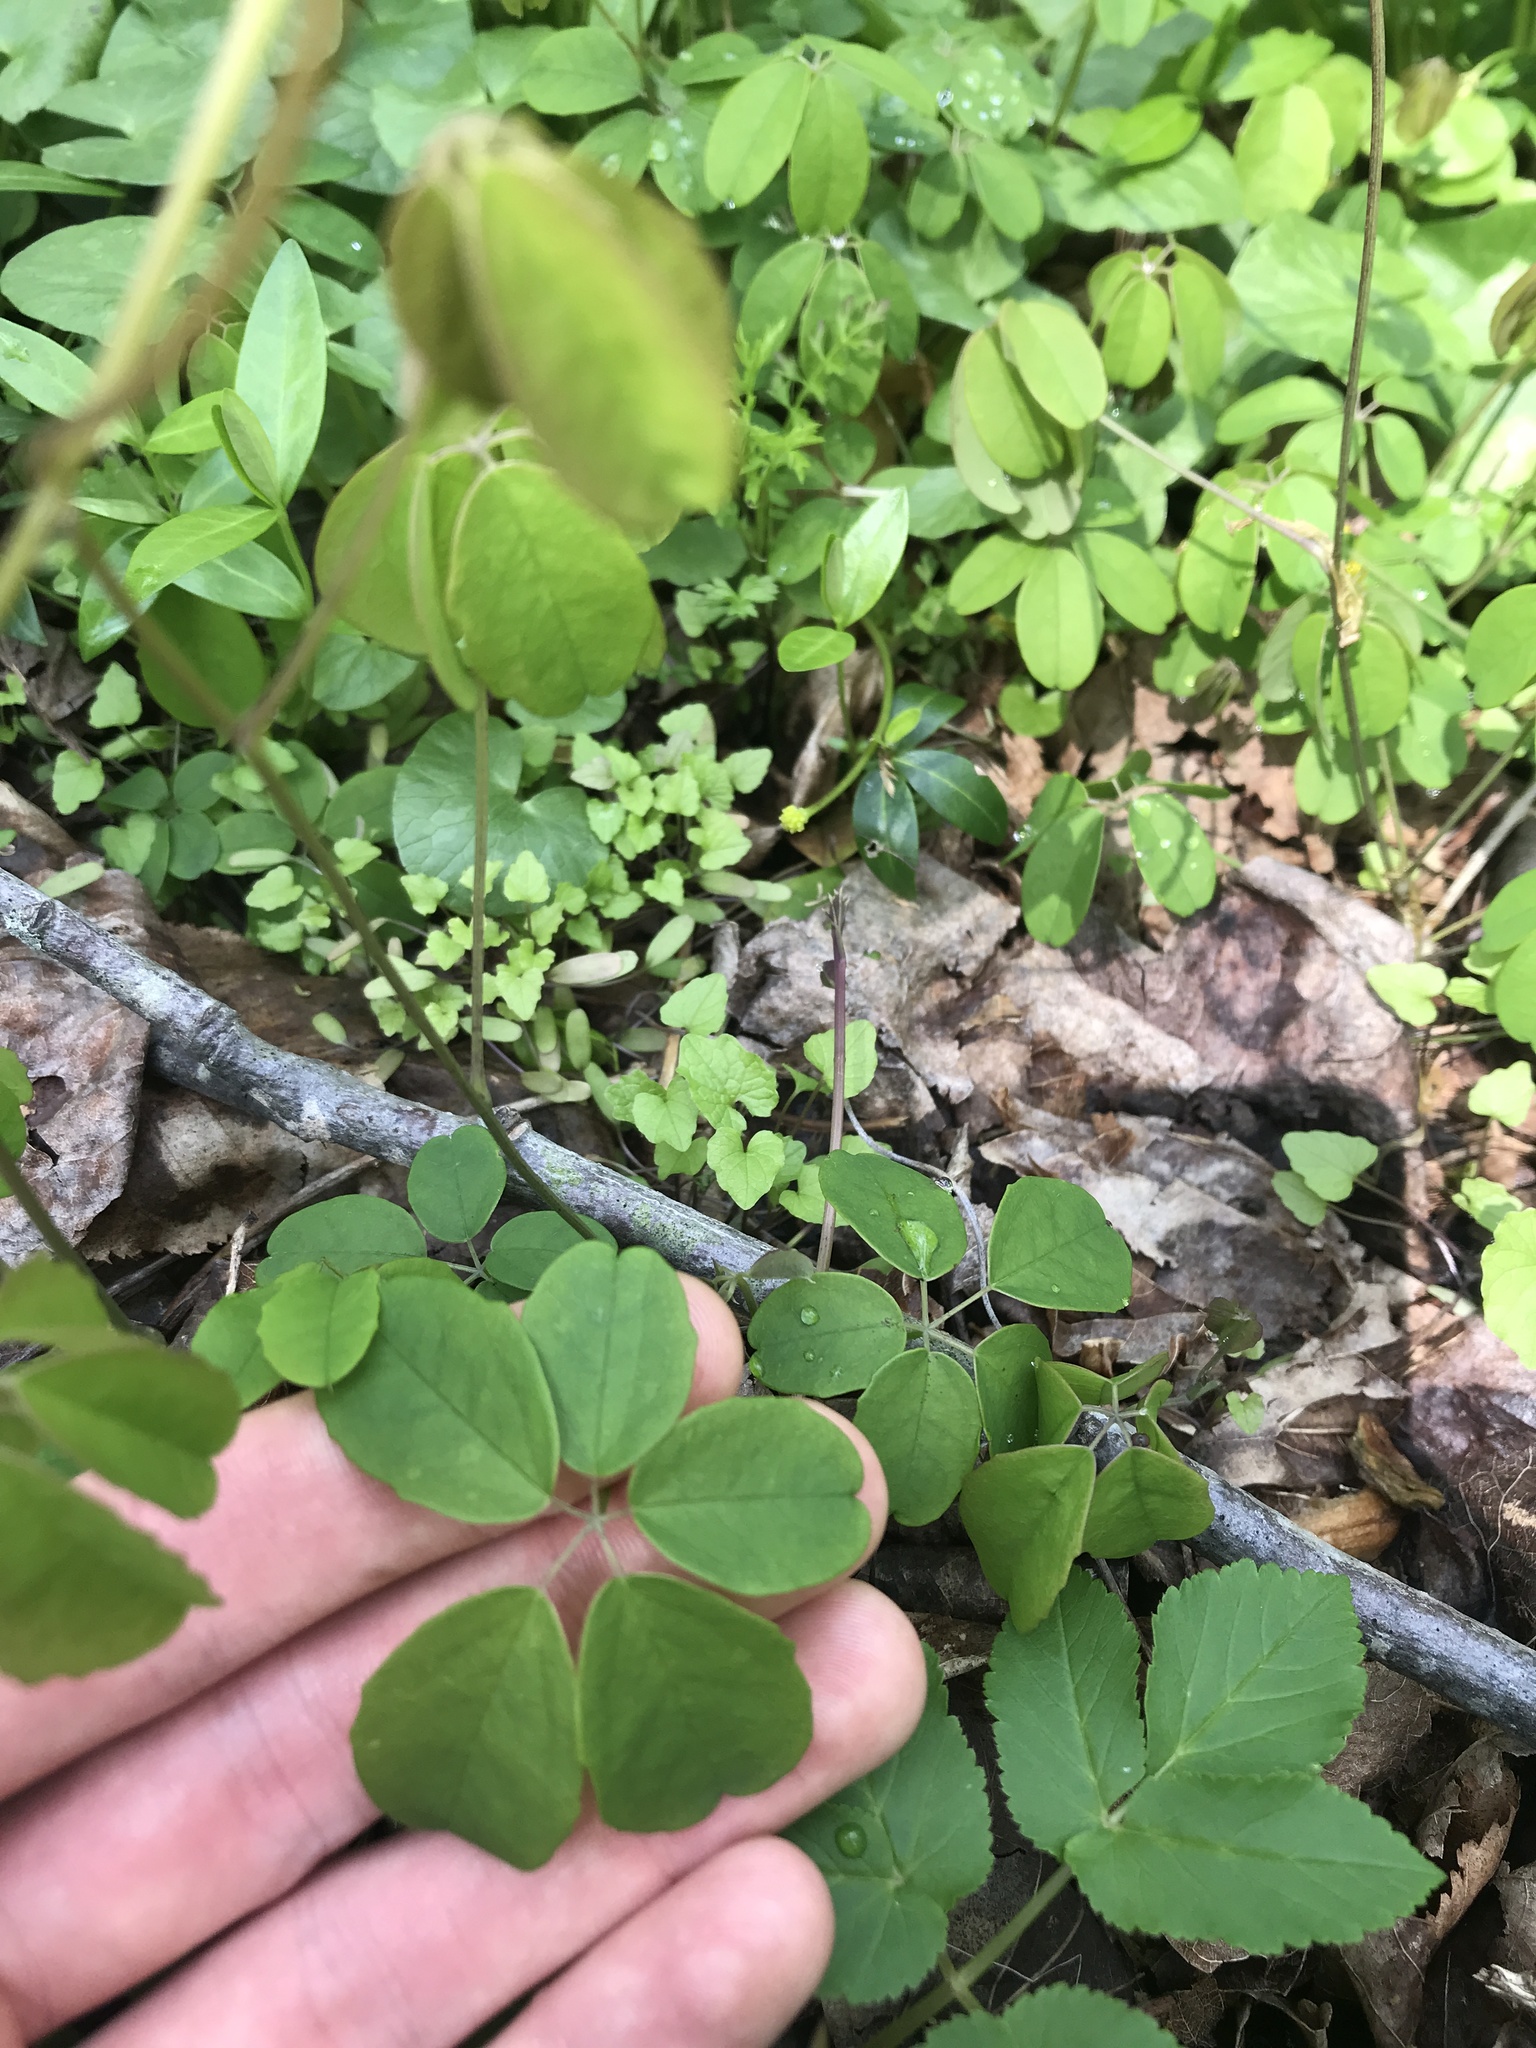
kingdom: Plantae
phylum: Tracheophyta
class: Magnoliopsida
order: Ranunculales
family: Lardizabalaceae
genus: Akebia
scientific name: Akebia quinata
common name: Five-leaf akebia
